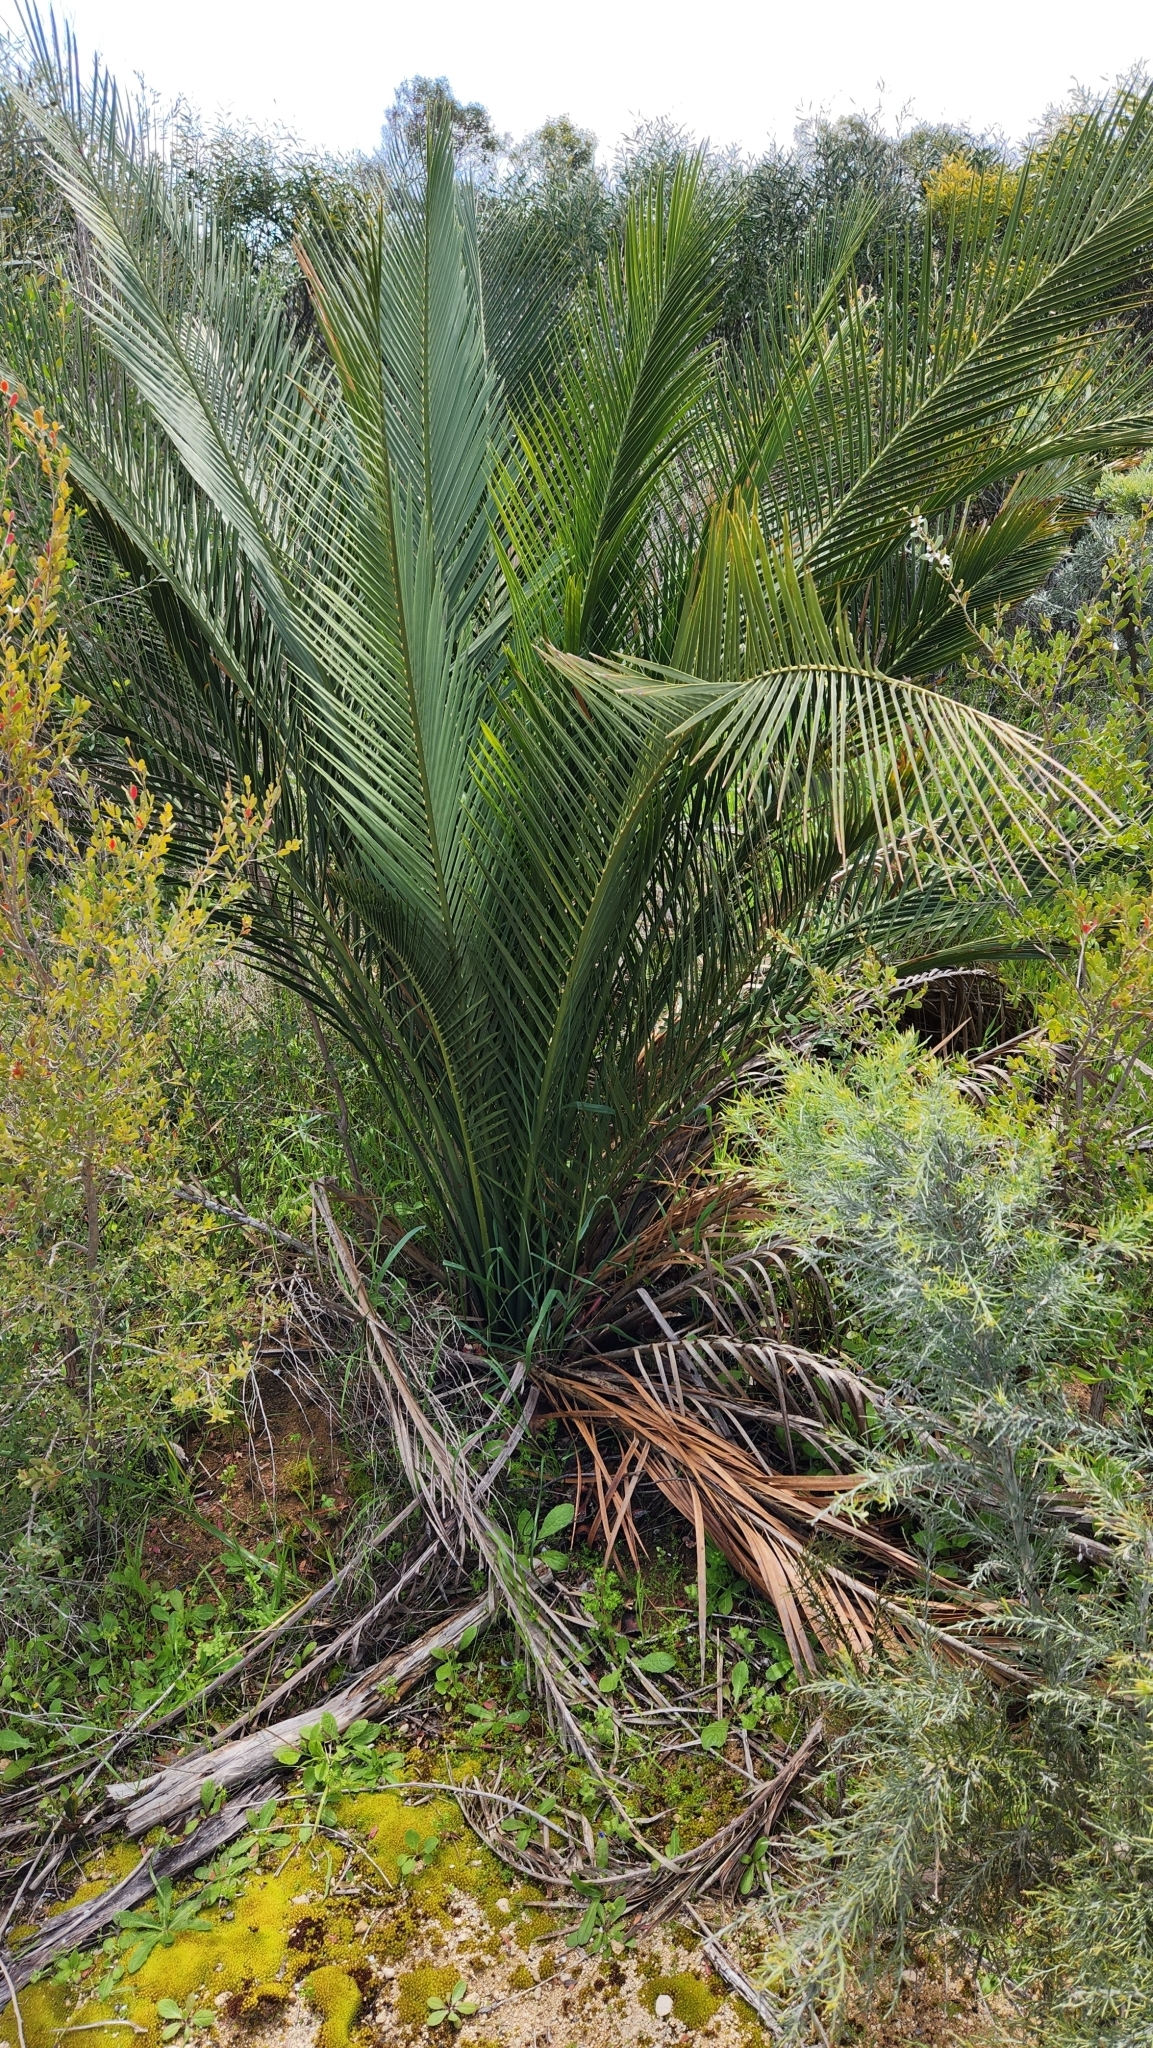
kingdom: Plantae
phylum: Tracheophyta
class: Cycadopsida
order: Cycadales
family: Zamiaceae
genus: Macrozamia
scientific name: Macrozamia riedlei
